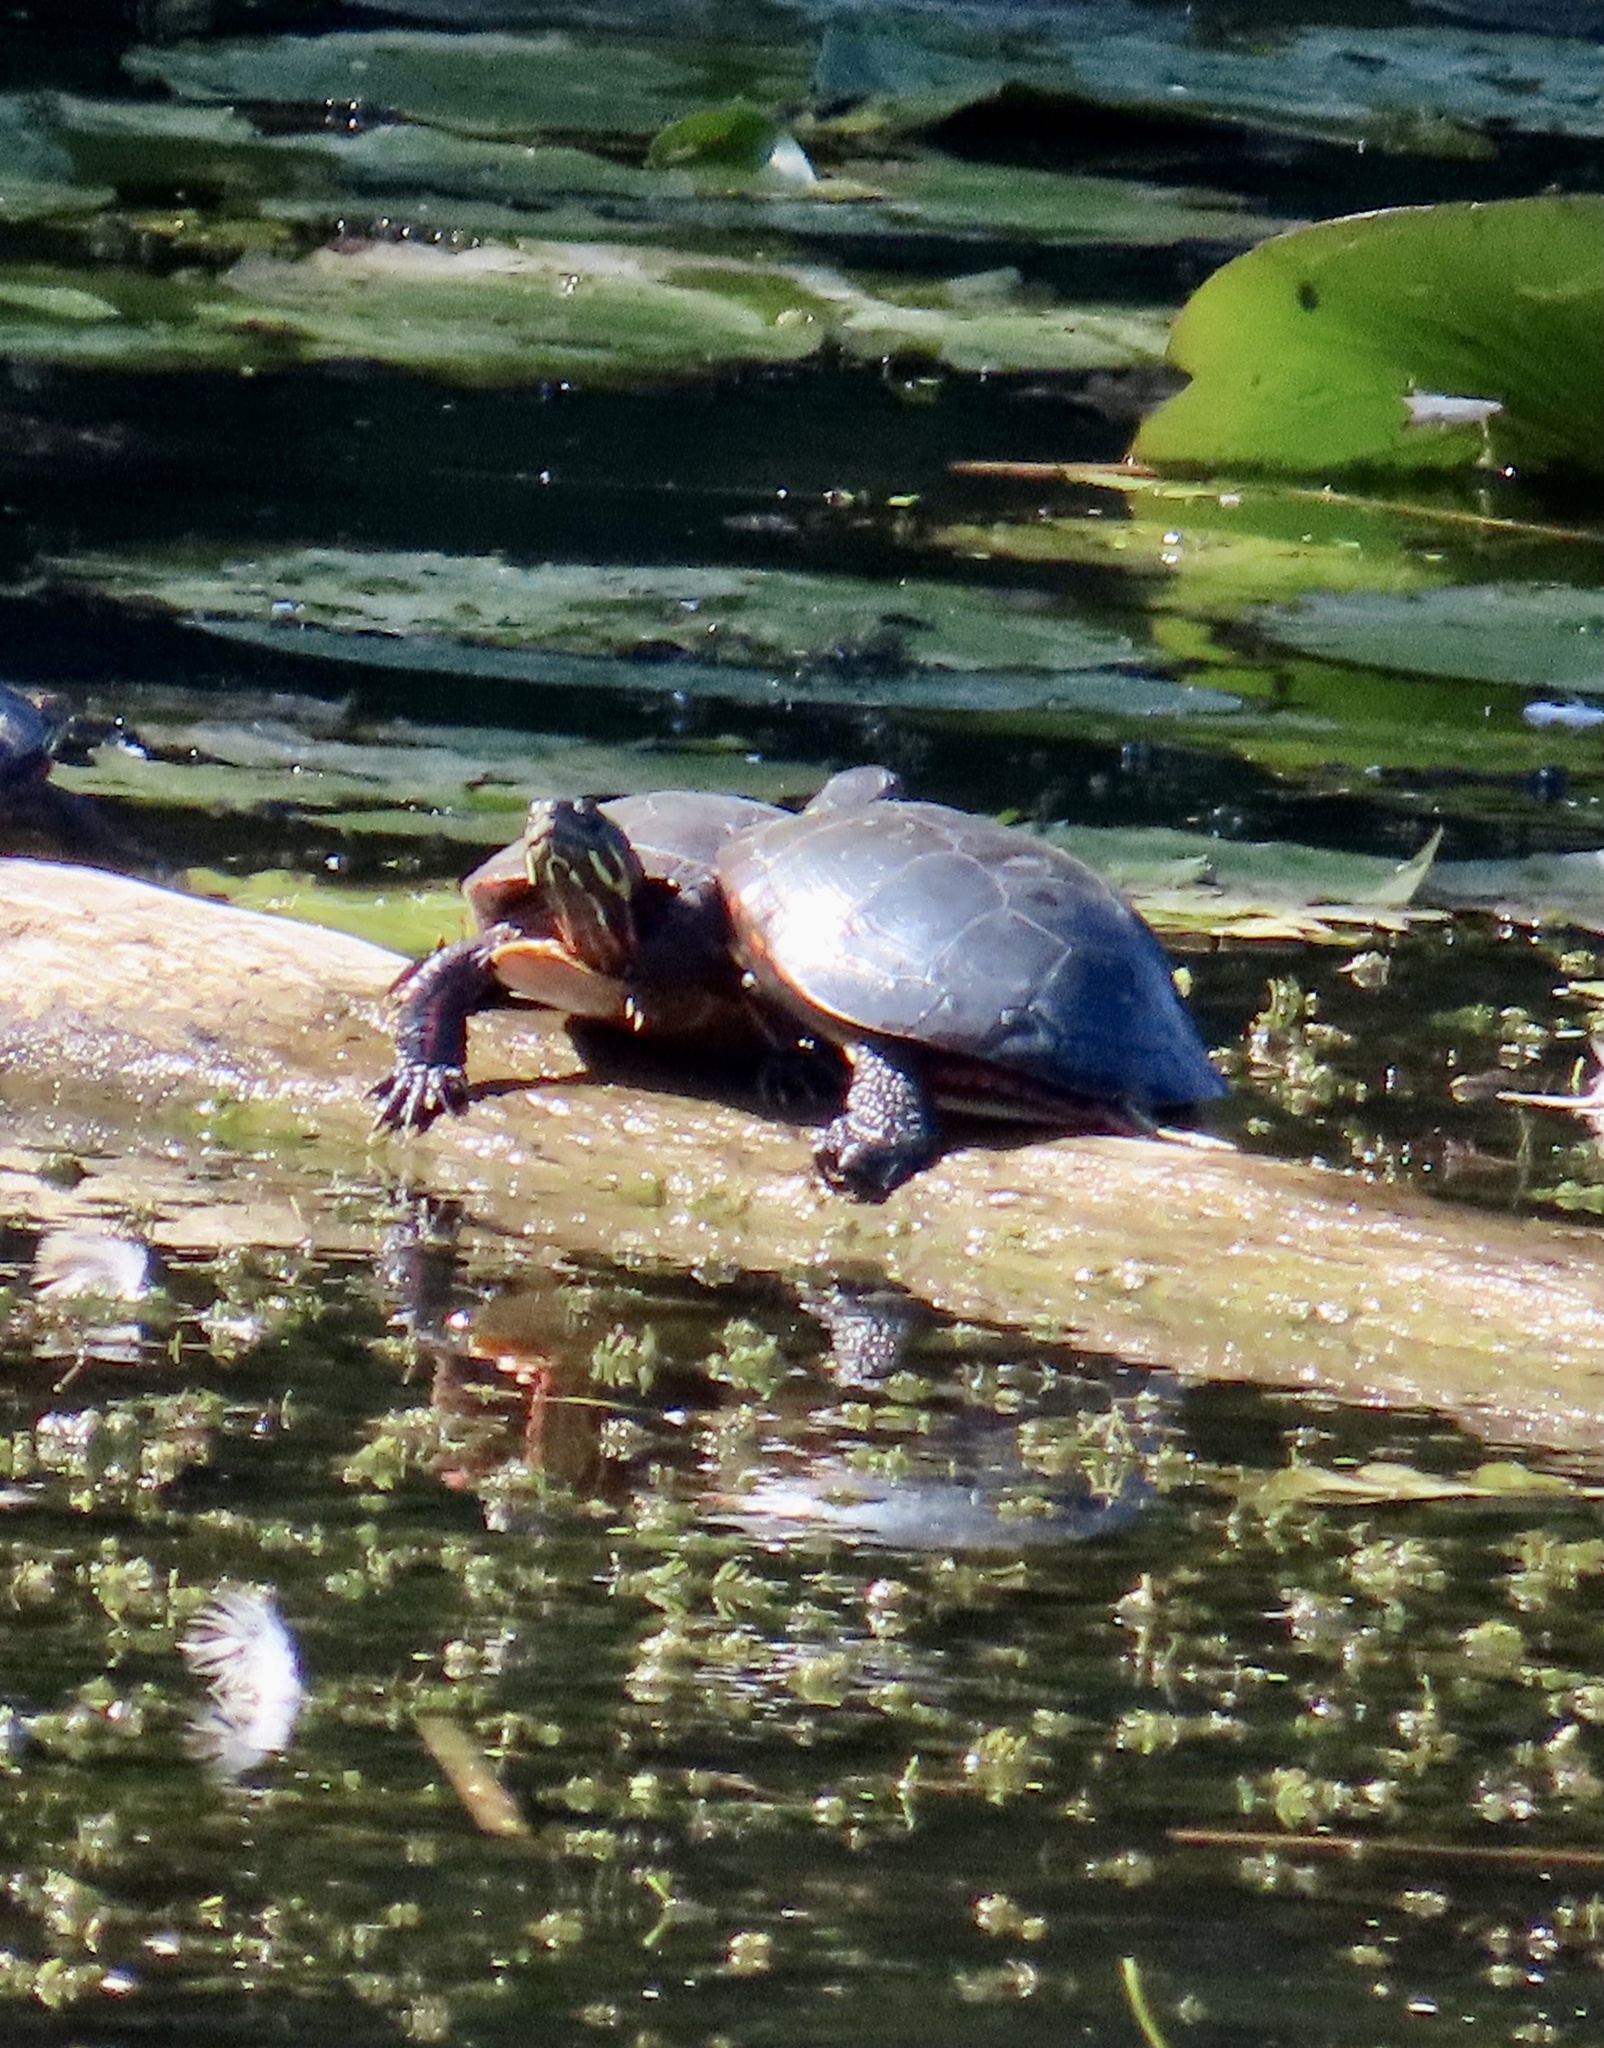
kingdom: Animalia
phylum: Chordata
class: Testudines
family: Emydidae
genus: Chrysemys
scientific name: Chrysemys picta
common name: Painted turtle
